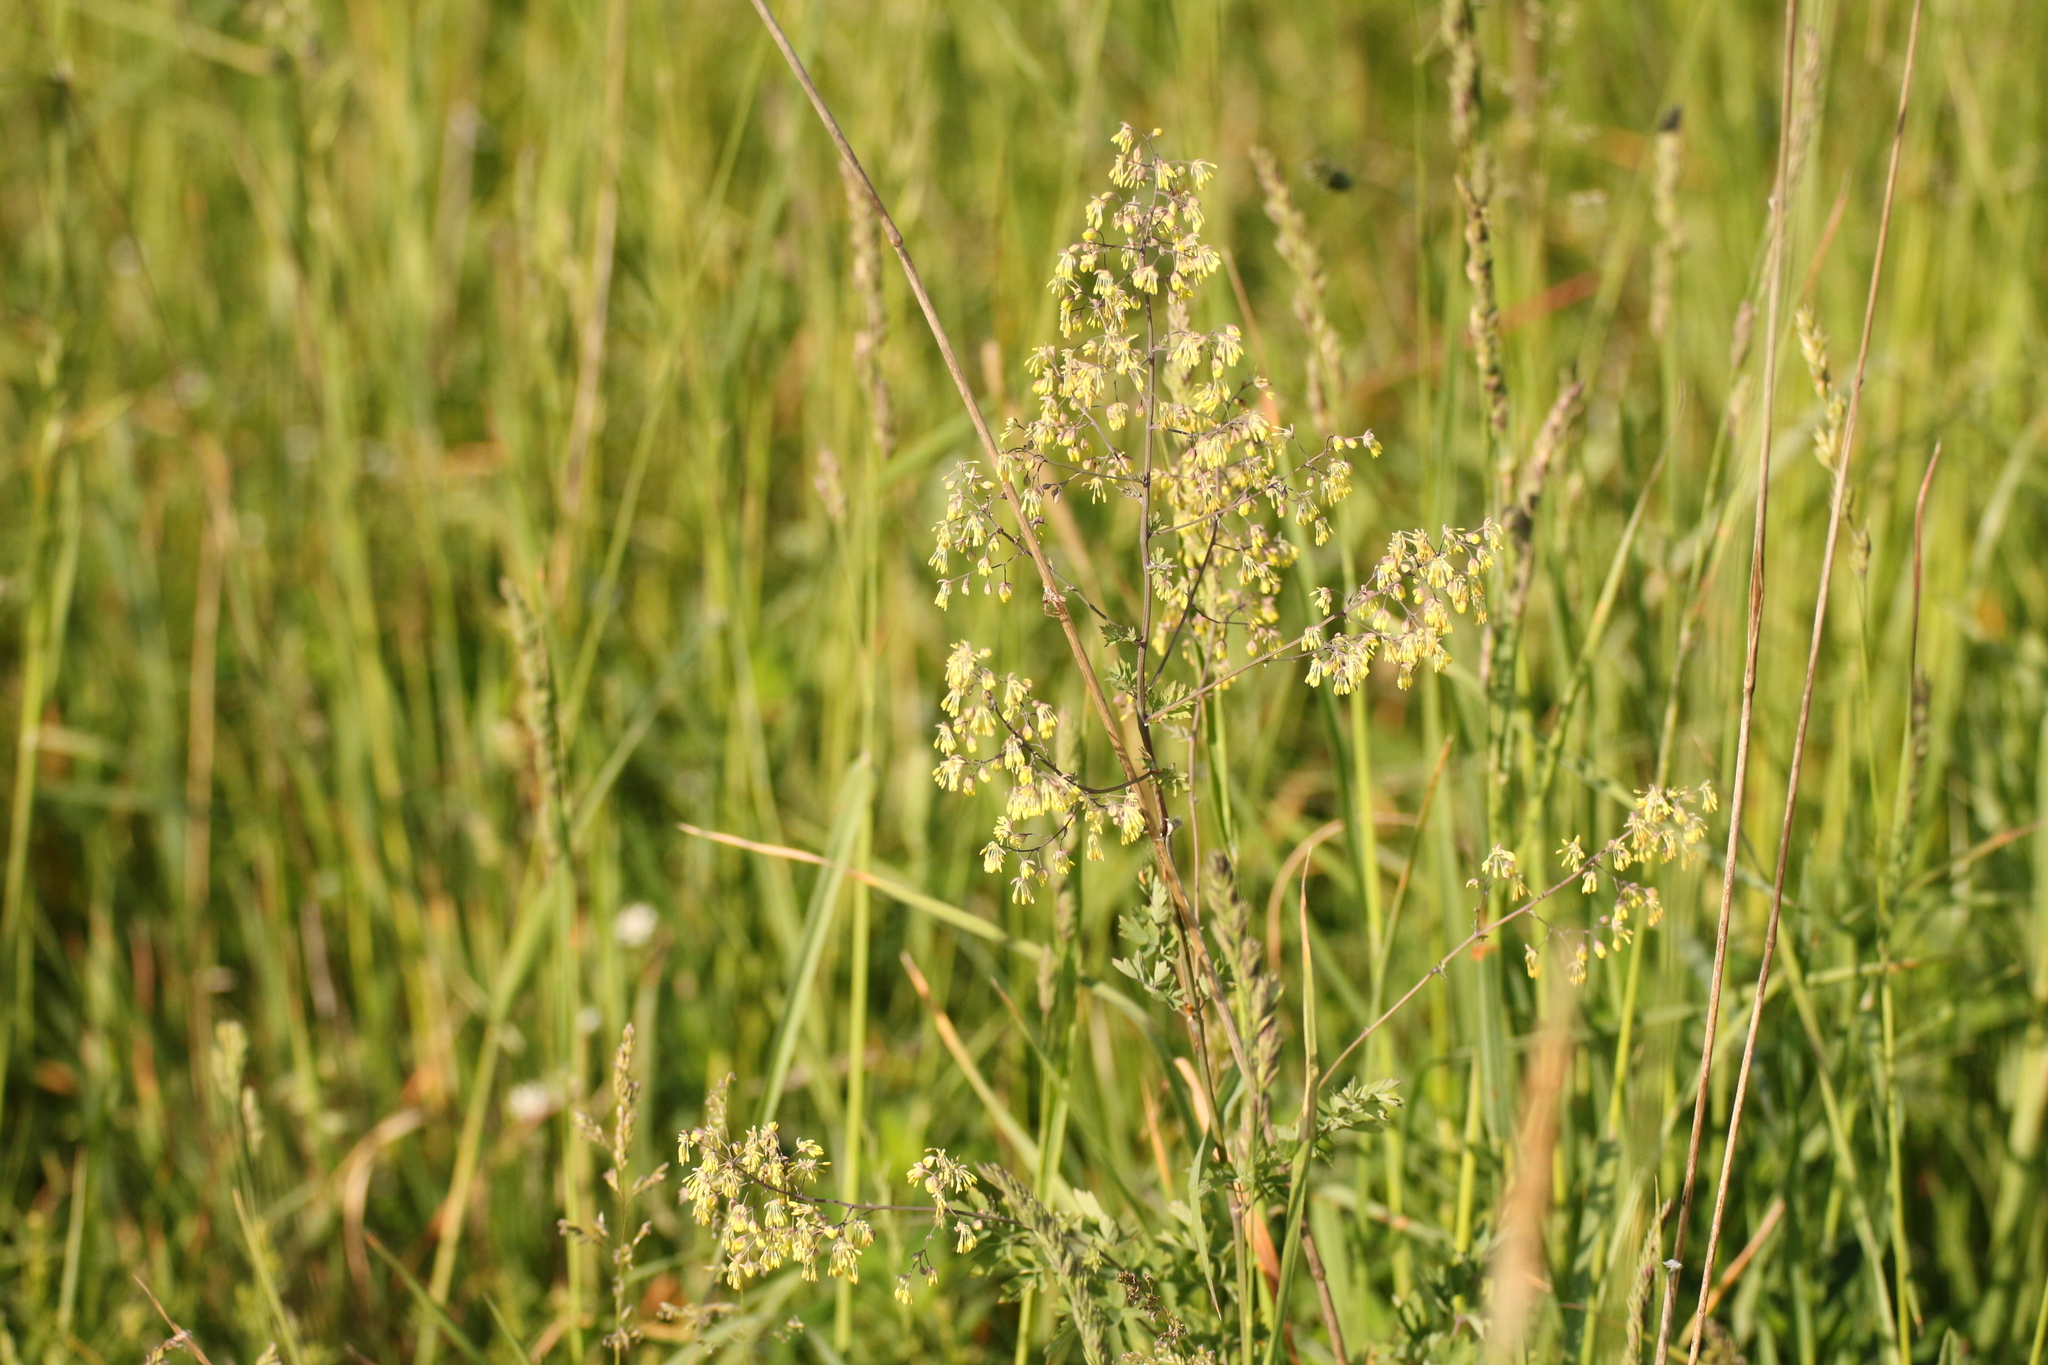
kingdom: Plantae
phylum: Tracheophyta
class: Magnoliopsida
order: Ranunculales
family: Ranunculaceae
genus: Thalictrum
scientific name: Thalictrum minus
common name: Lesser meadow-rue
